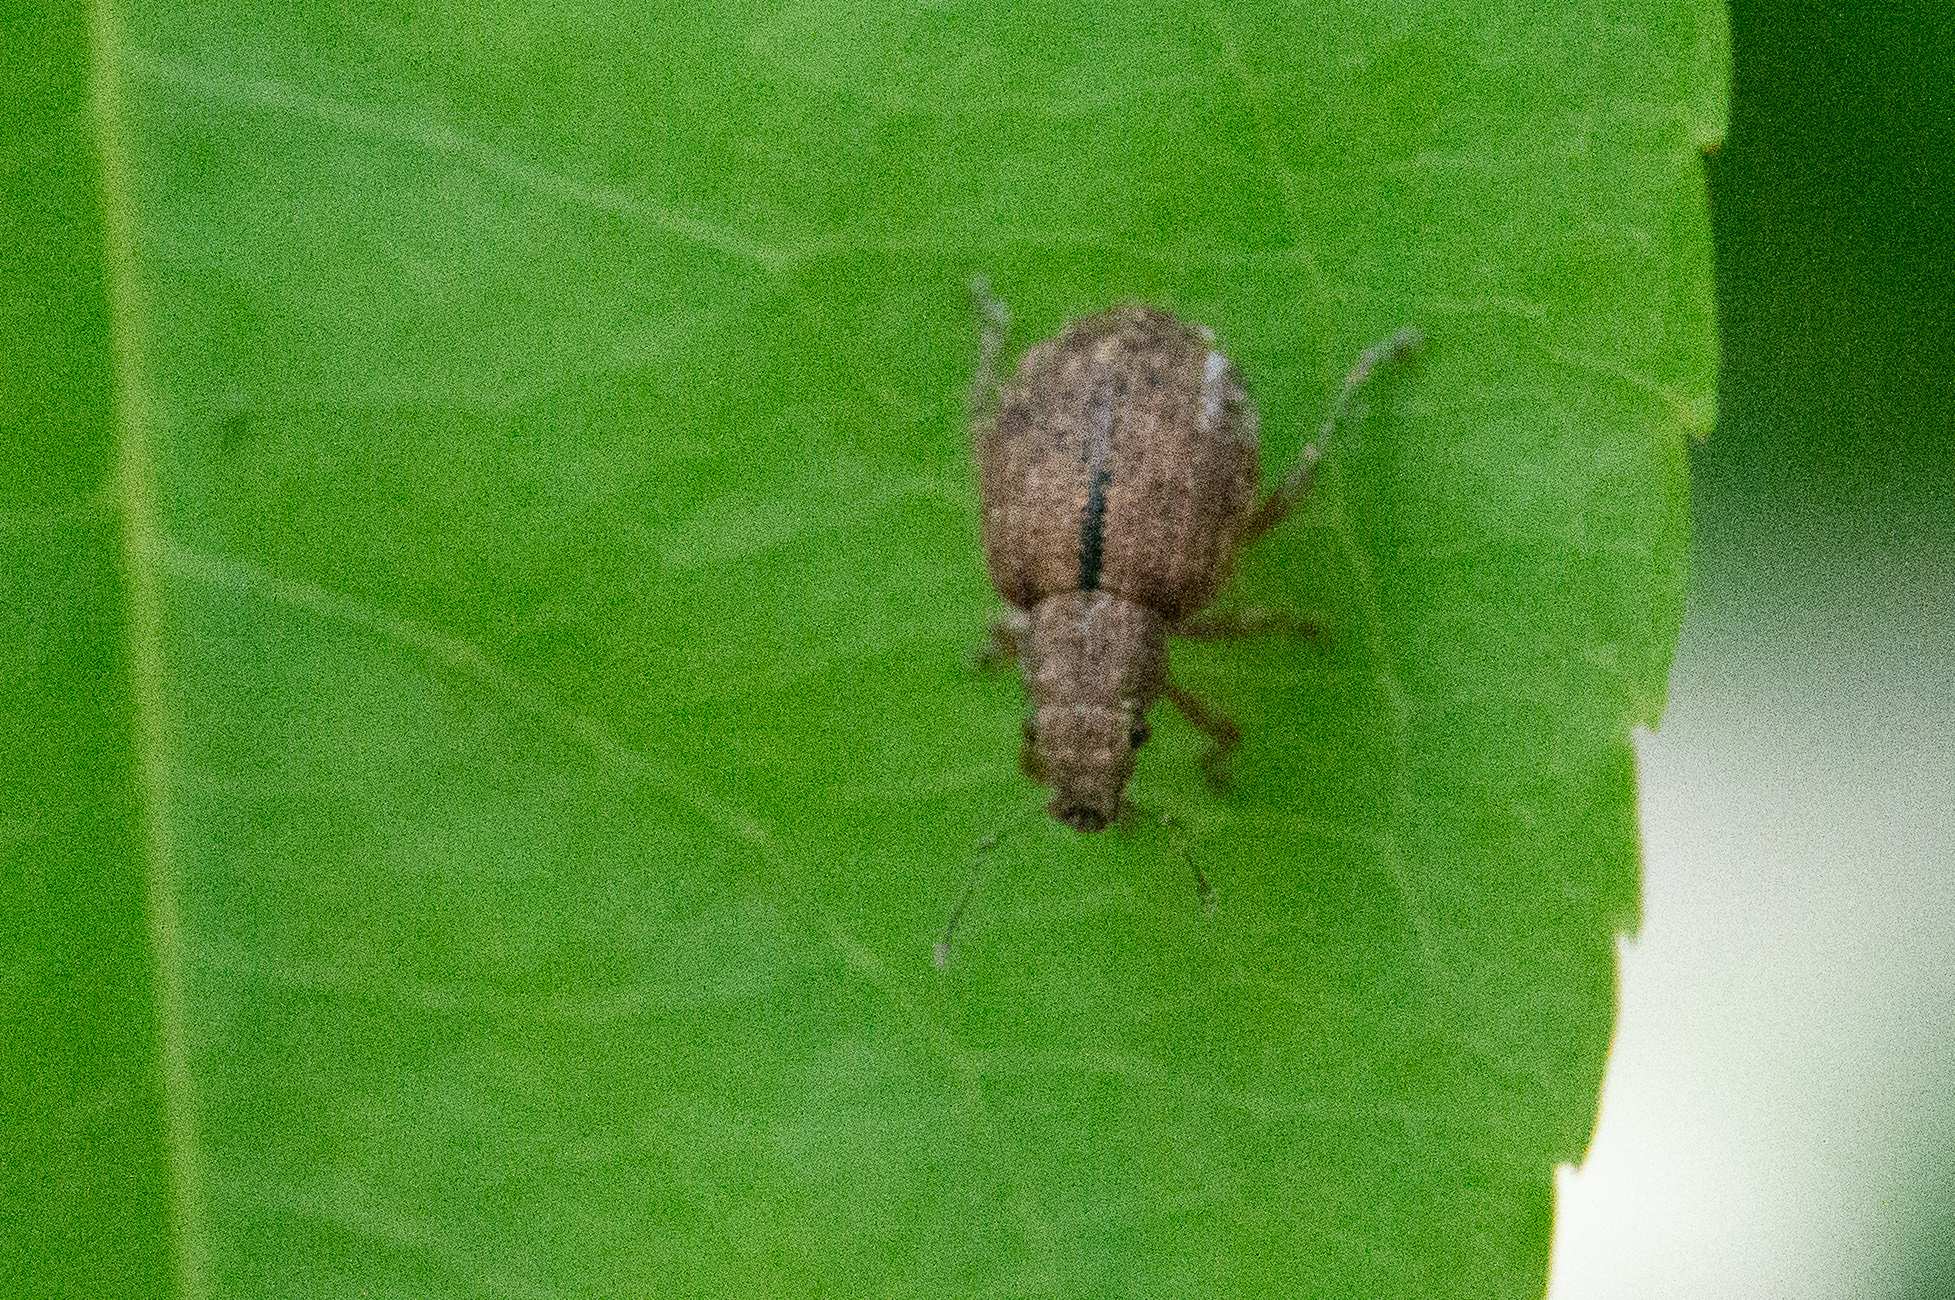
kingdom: Animalia
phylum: Arthropoda
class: Insecta
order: Coleoptera
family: Curculionidae
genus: Strophosoma
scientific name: Strophosoma melanogrammum
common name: Weevil
